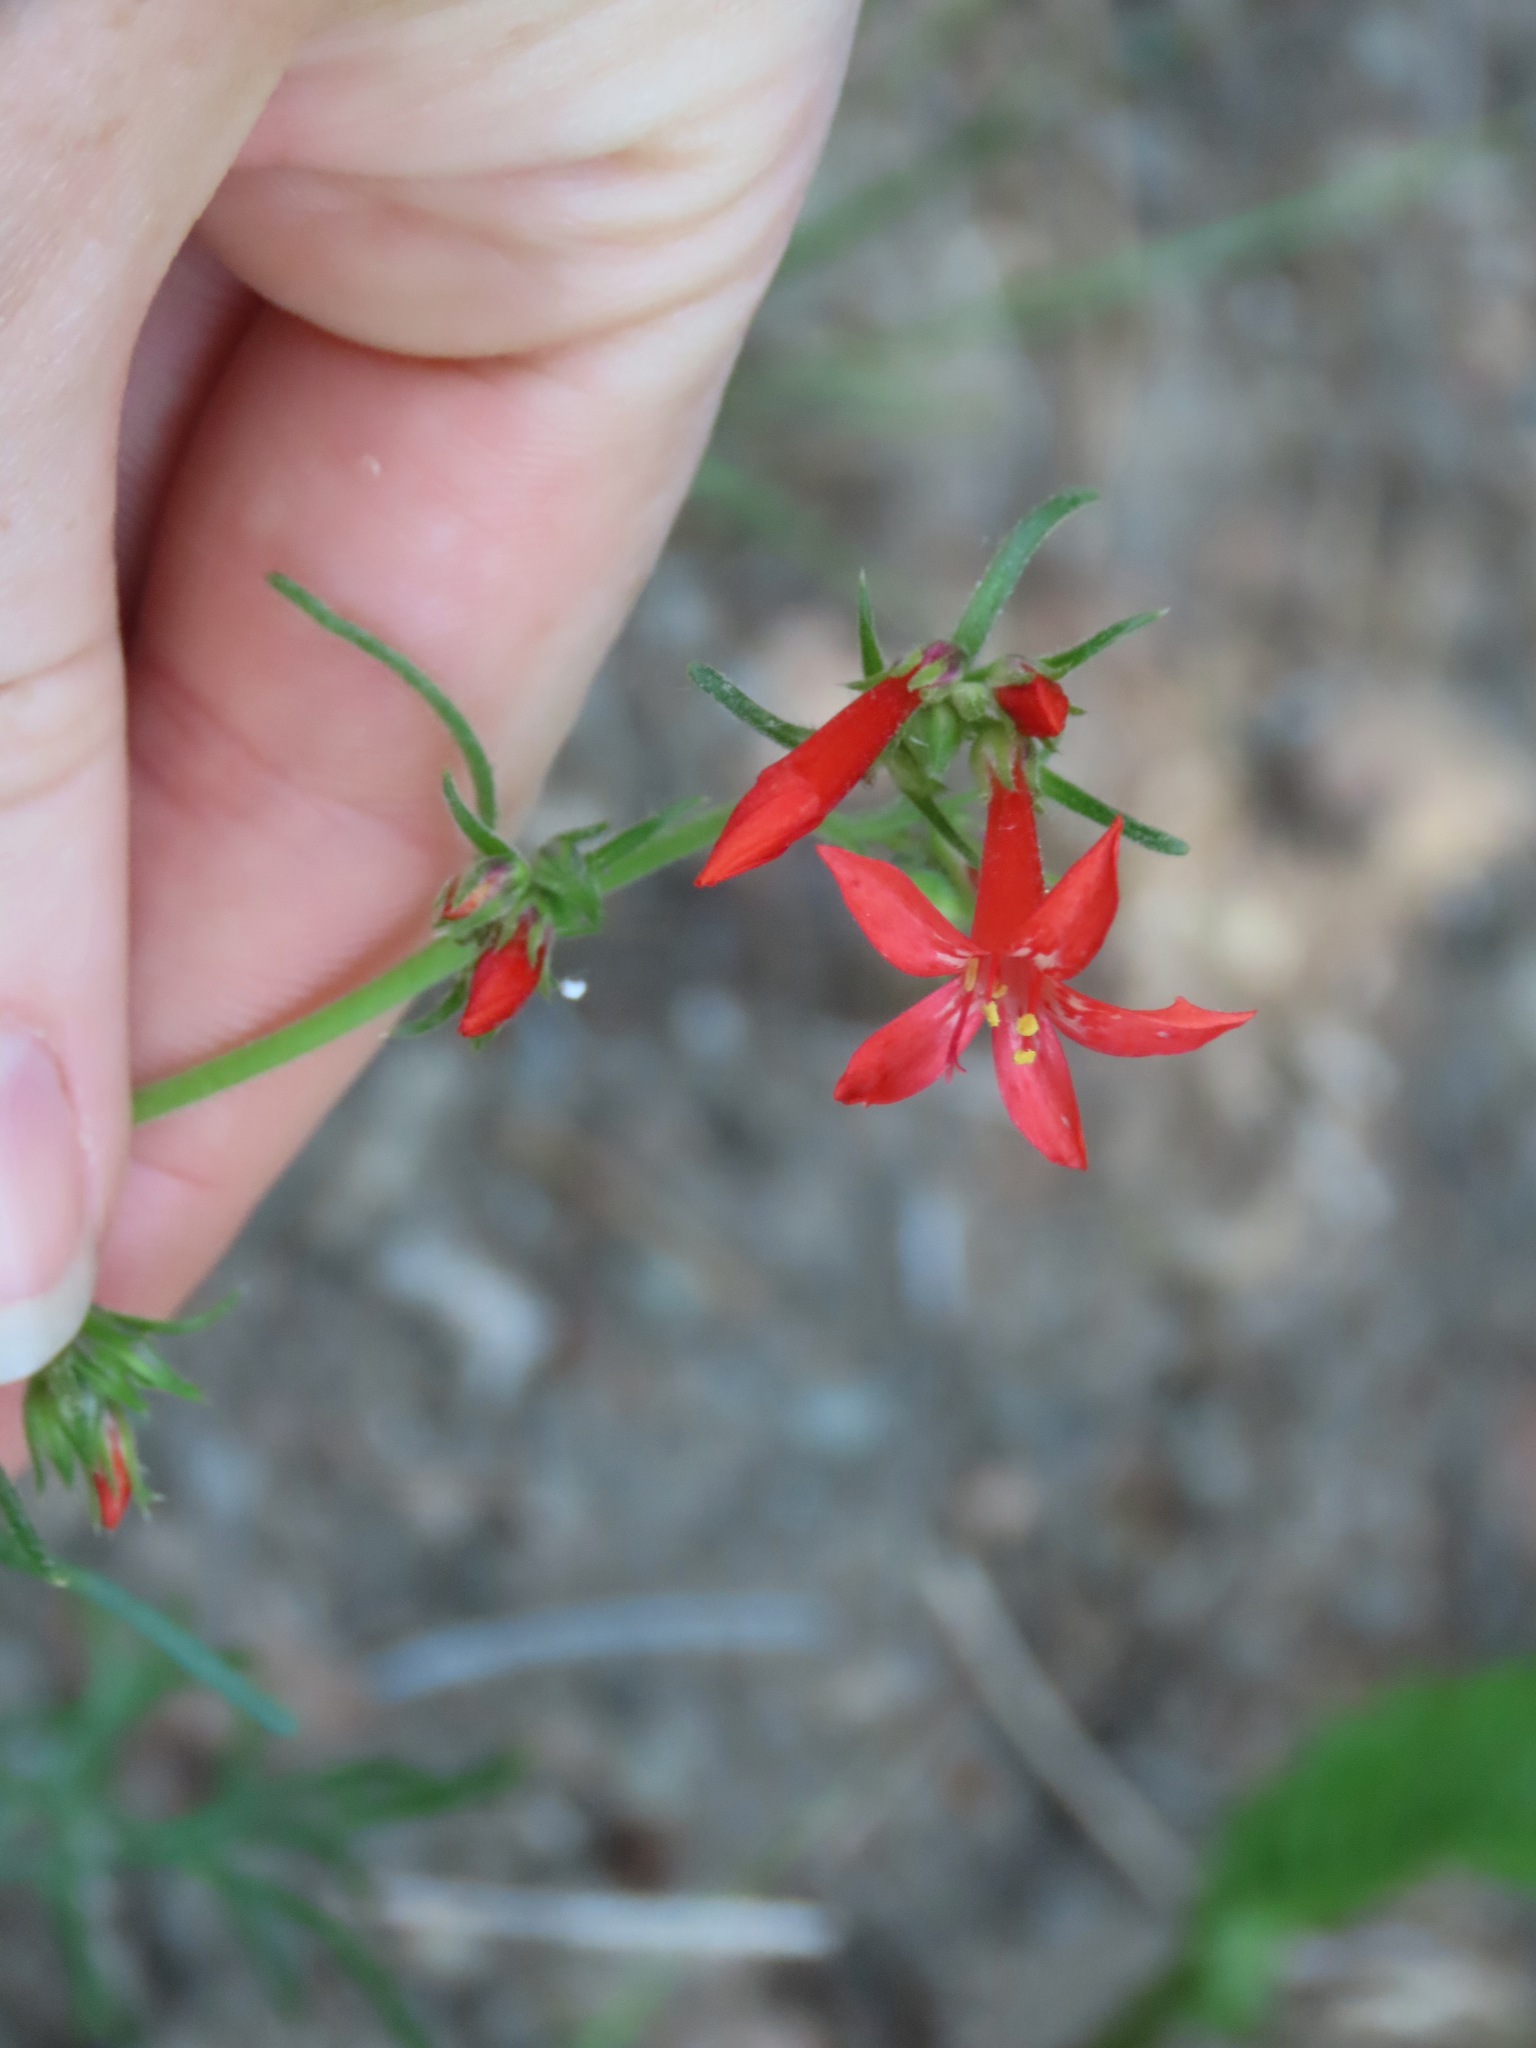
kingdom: Plantae
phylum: Tracheophyta
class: Magnoliopsida
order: Ericales
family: Polemoniaceae
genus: Ipomopsis
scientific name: Ipomopsis aggregata
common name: Scarlet gilia
